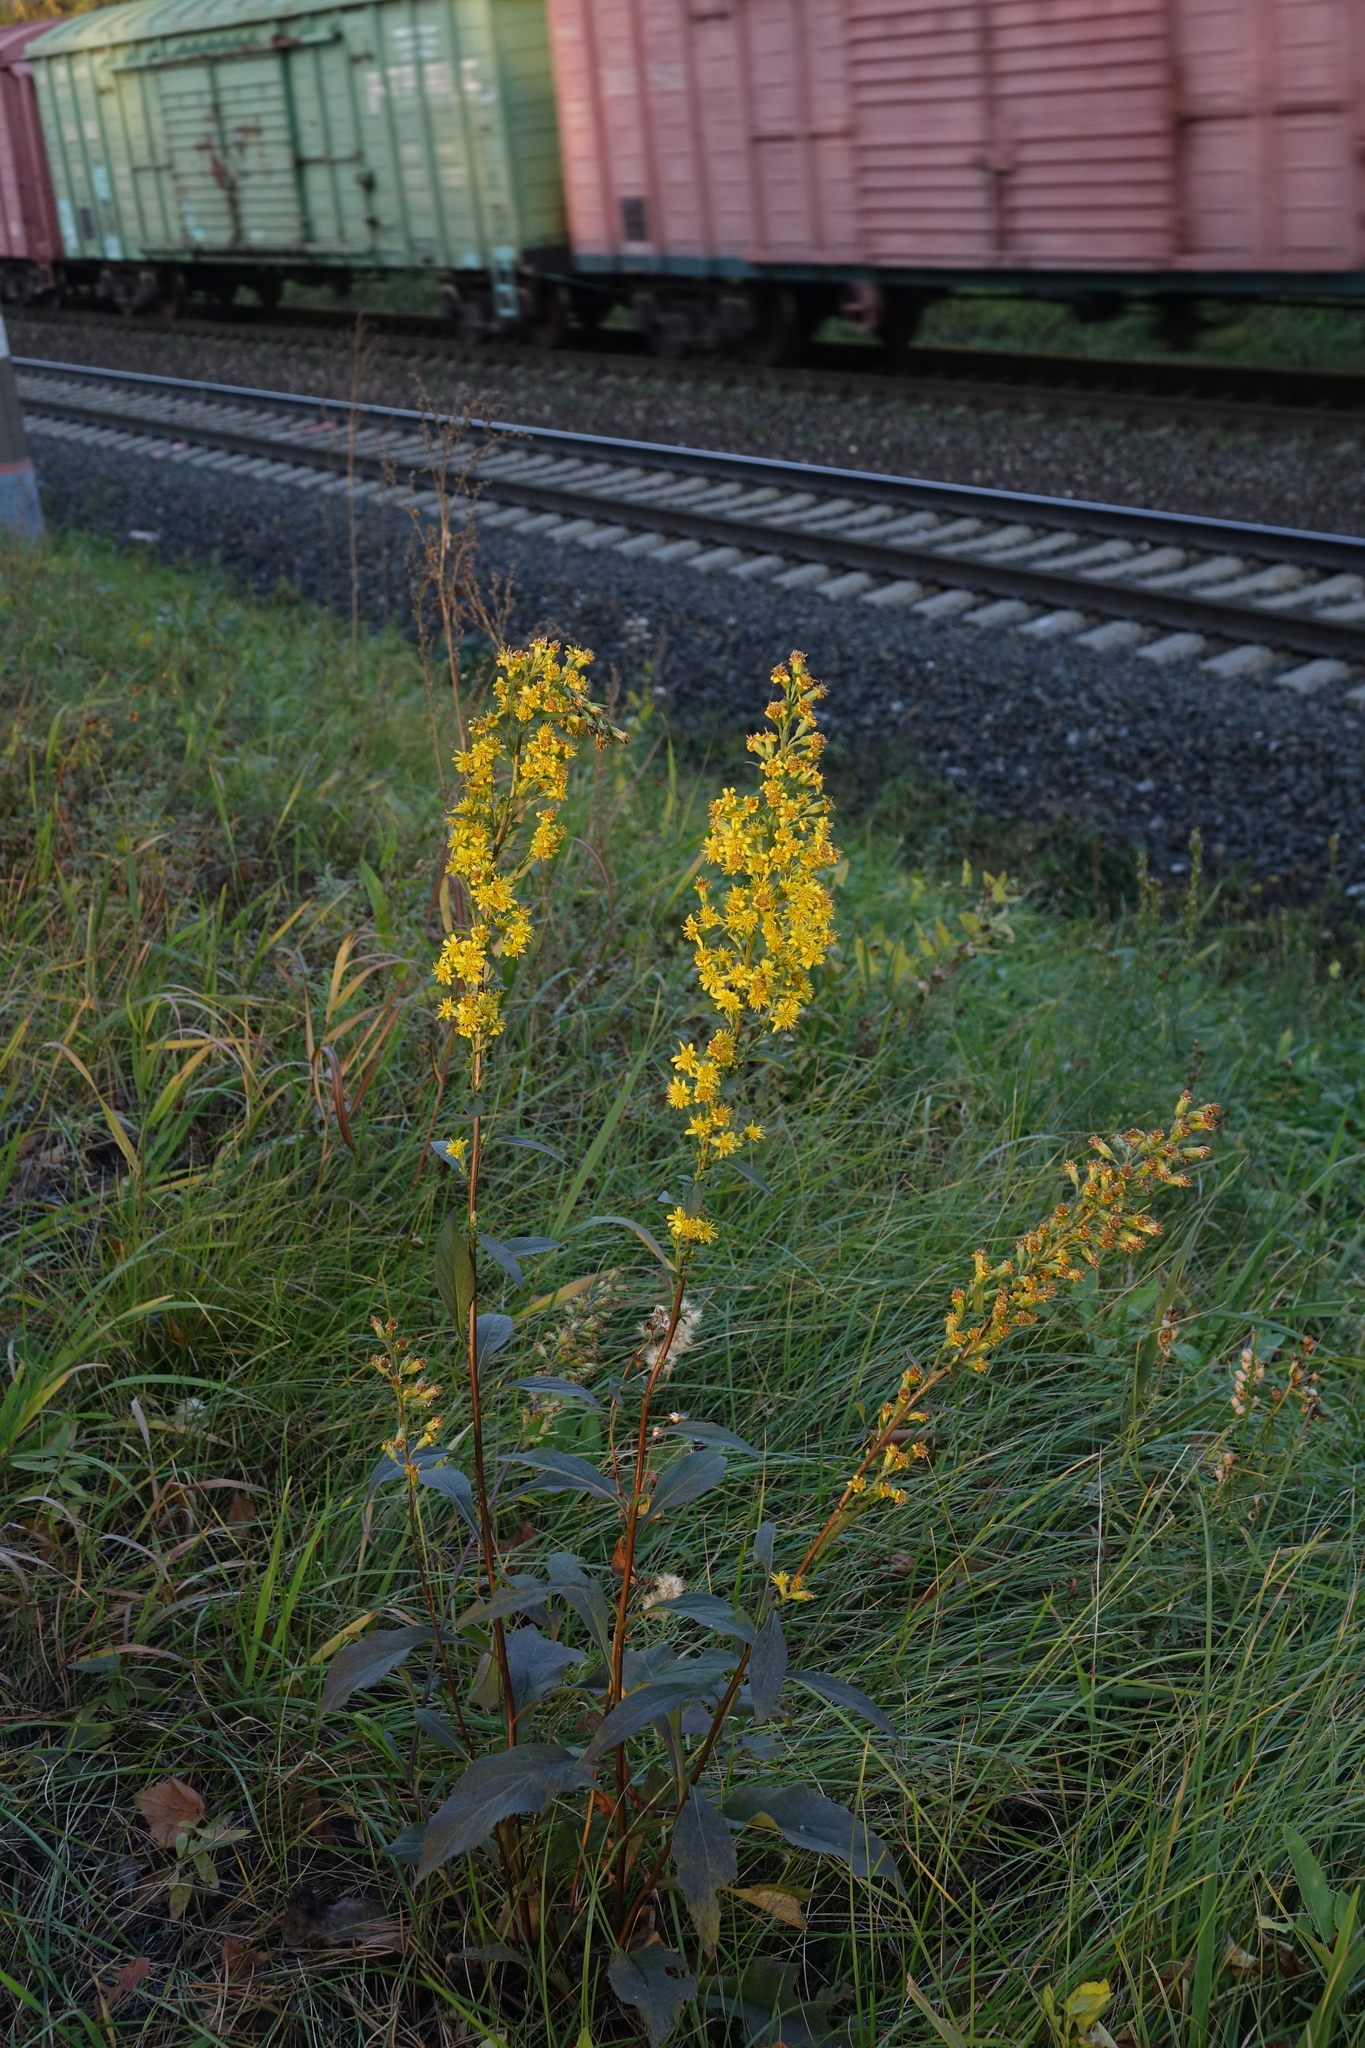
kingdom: Plantae
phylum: Tracheophyta
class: Magnoliopsida
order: Asterales
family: Asteraceae
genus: Solidago
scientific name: Solidago virgaurea
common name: Goldenrod
